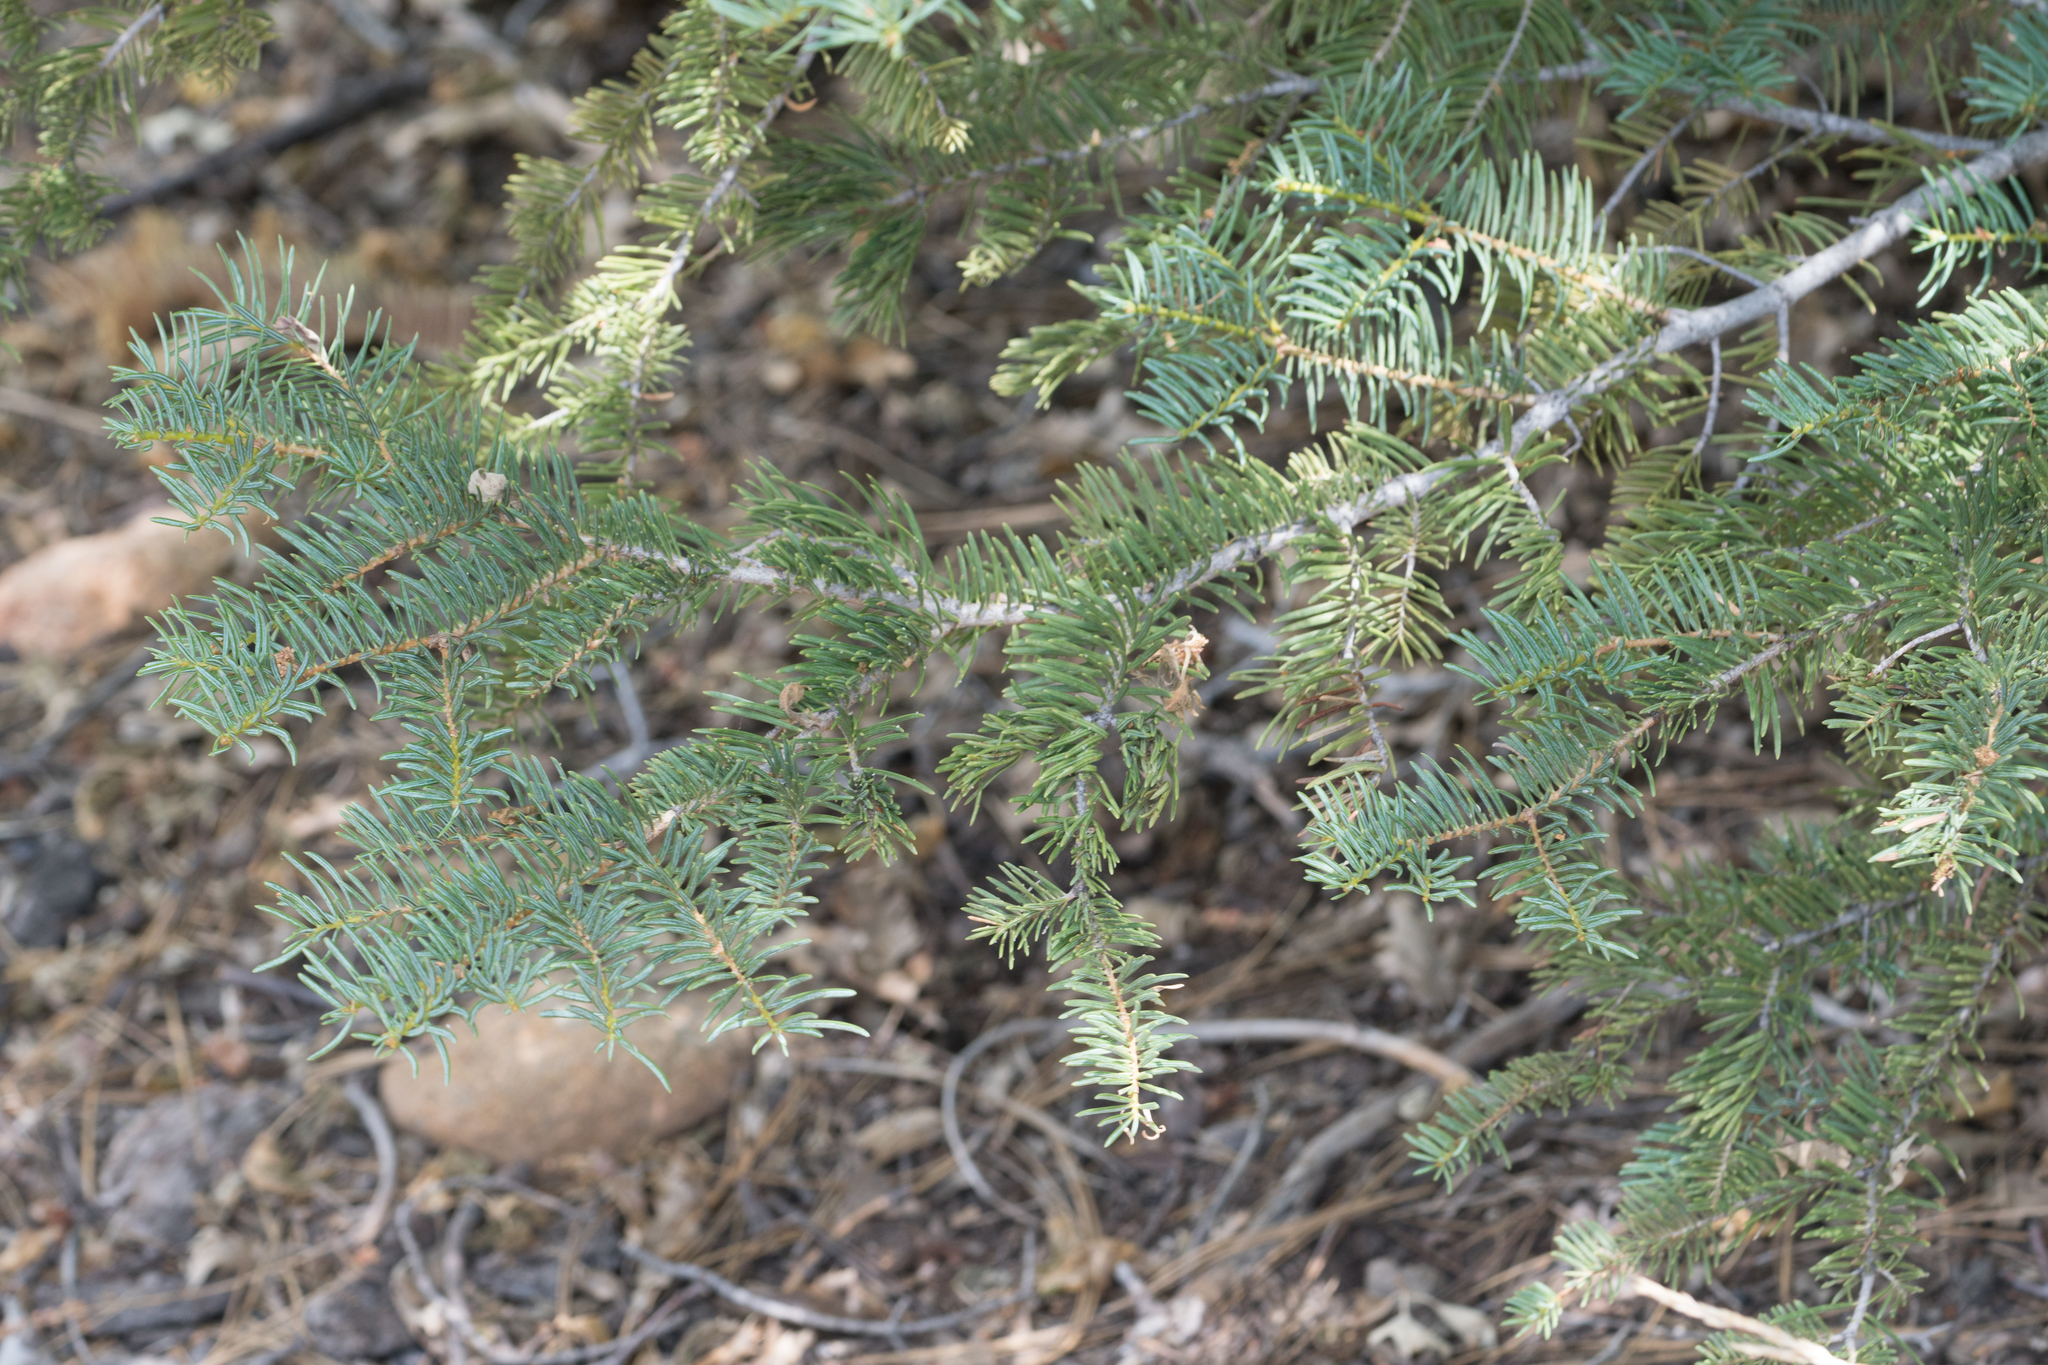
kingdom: Plantae
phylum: Tracheophyta
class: Pinopsida
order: Pinales
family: Pinaceae
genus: Abies
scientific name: Abies concolor
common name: Colorado fir
